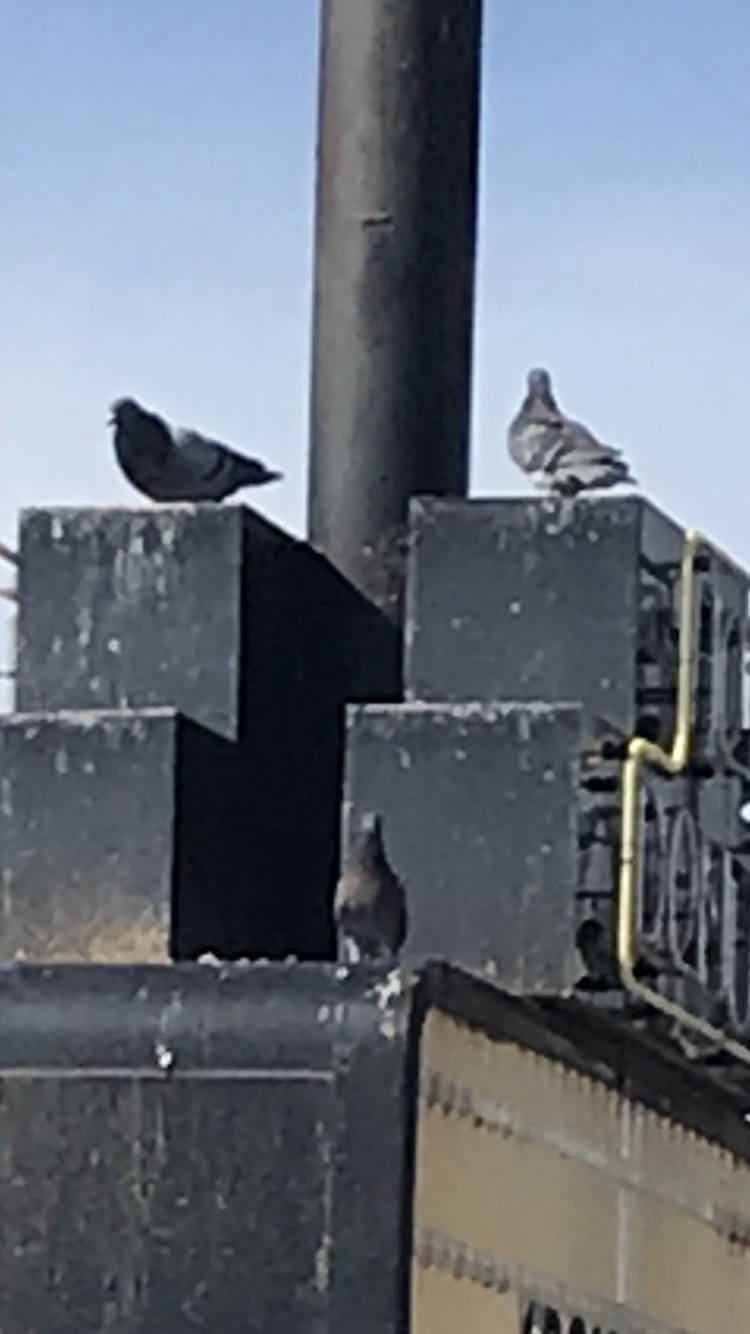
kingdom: Animalia
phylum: Chordata
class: Aves
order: Columbiformes
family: Columbidae
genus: Columba
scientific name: Columba livia
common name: Rock pigeon
